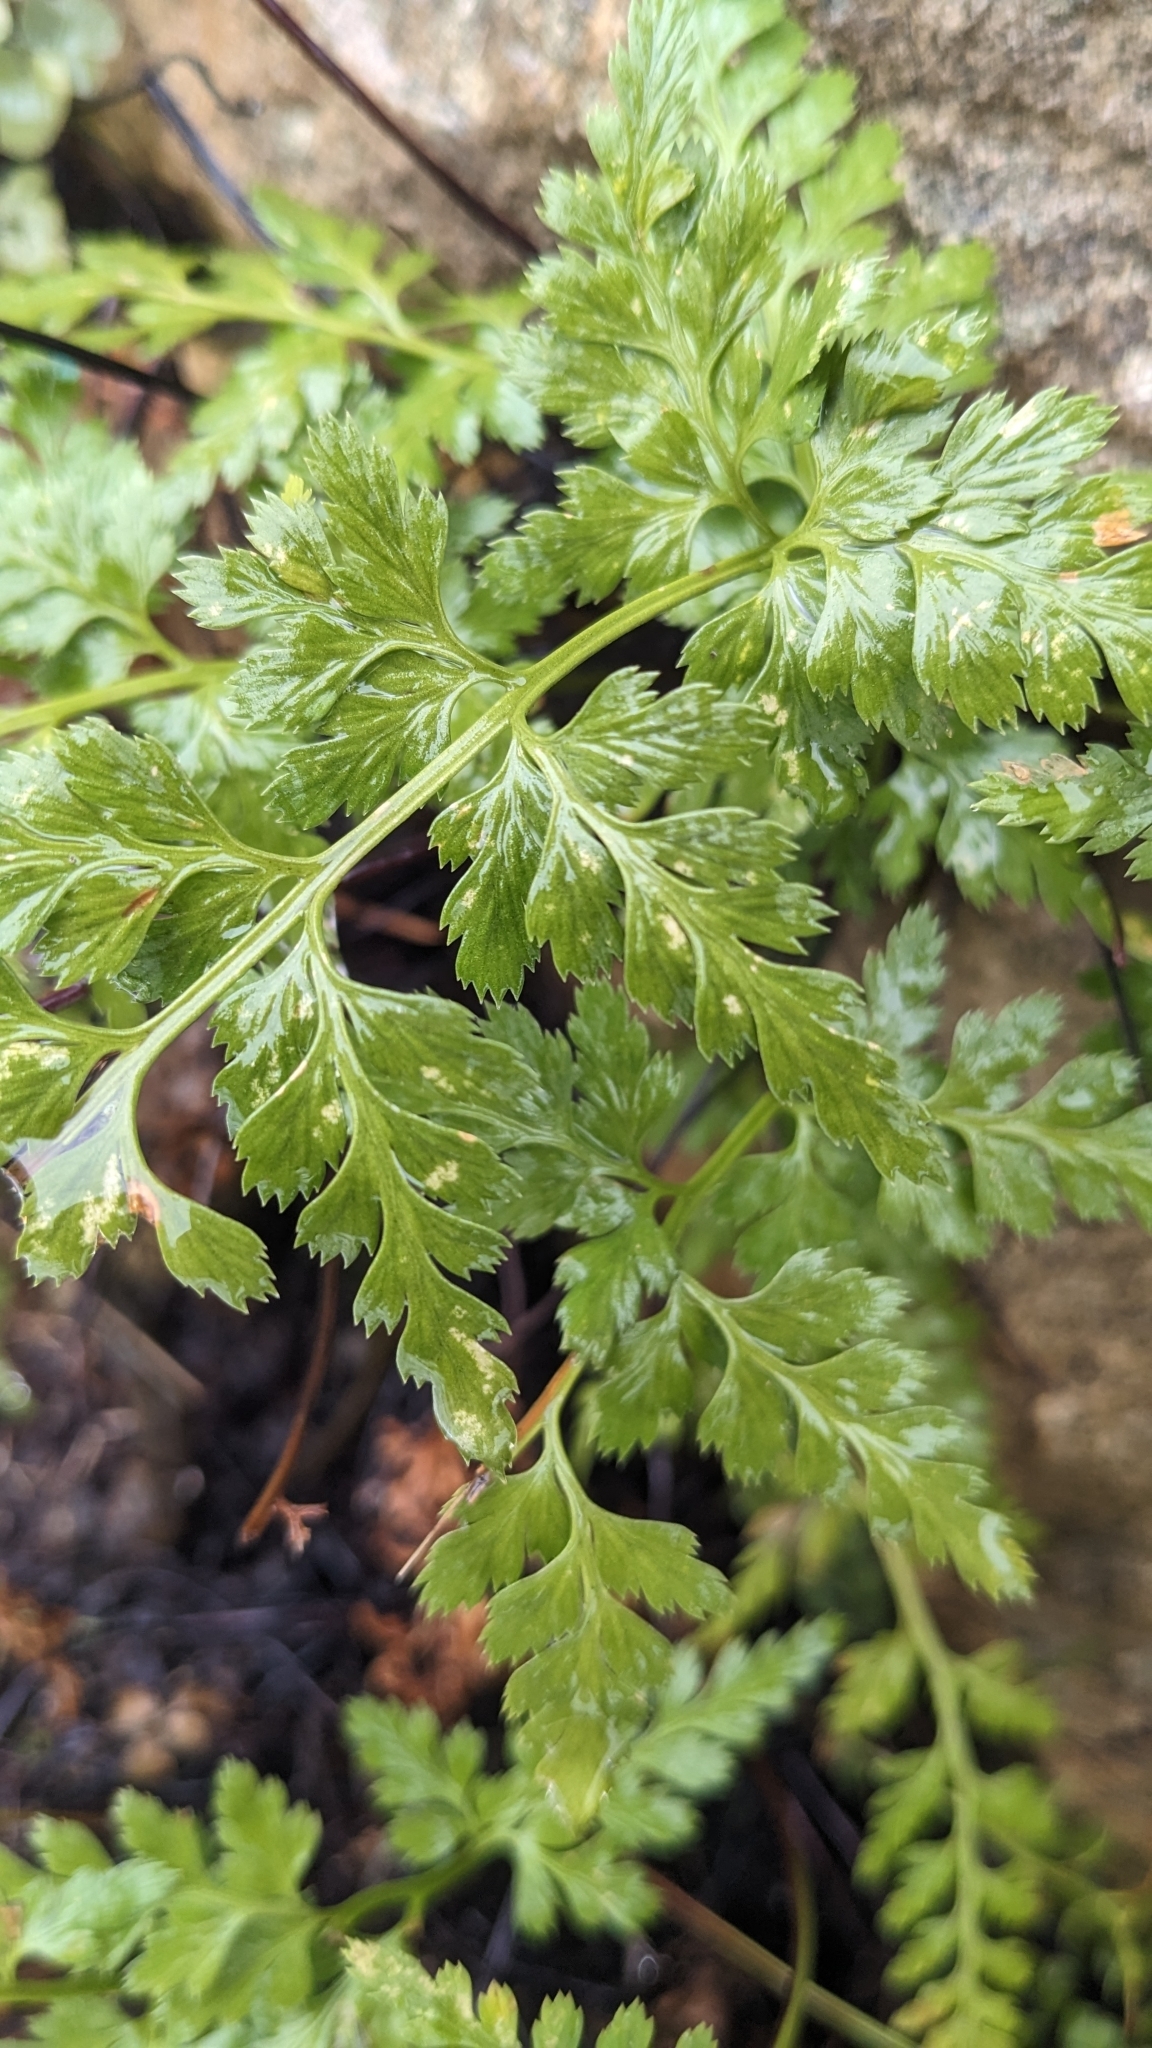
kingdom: Plantae
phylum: Tracheophyta
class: Polypodiopsida
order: Polypodiales
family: Aspleniaceae
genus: Asplenium
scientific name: Asplenium adiantum-nigrum
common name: Black spleenwort
